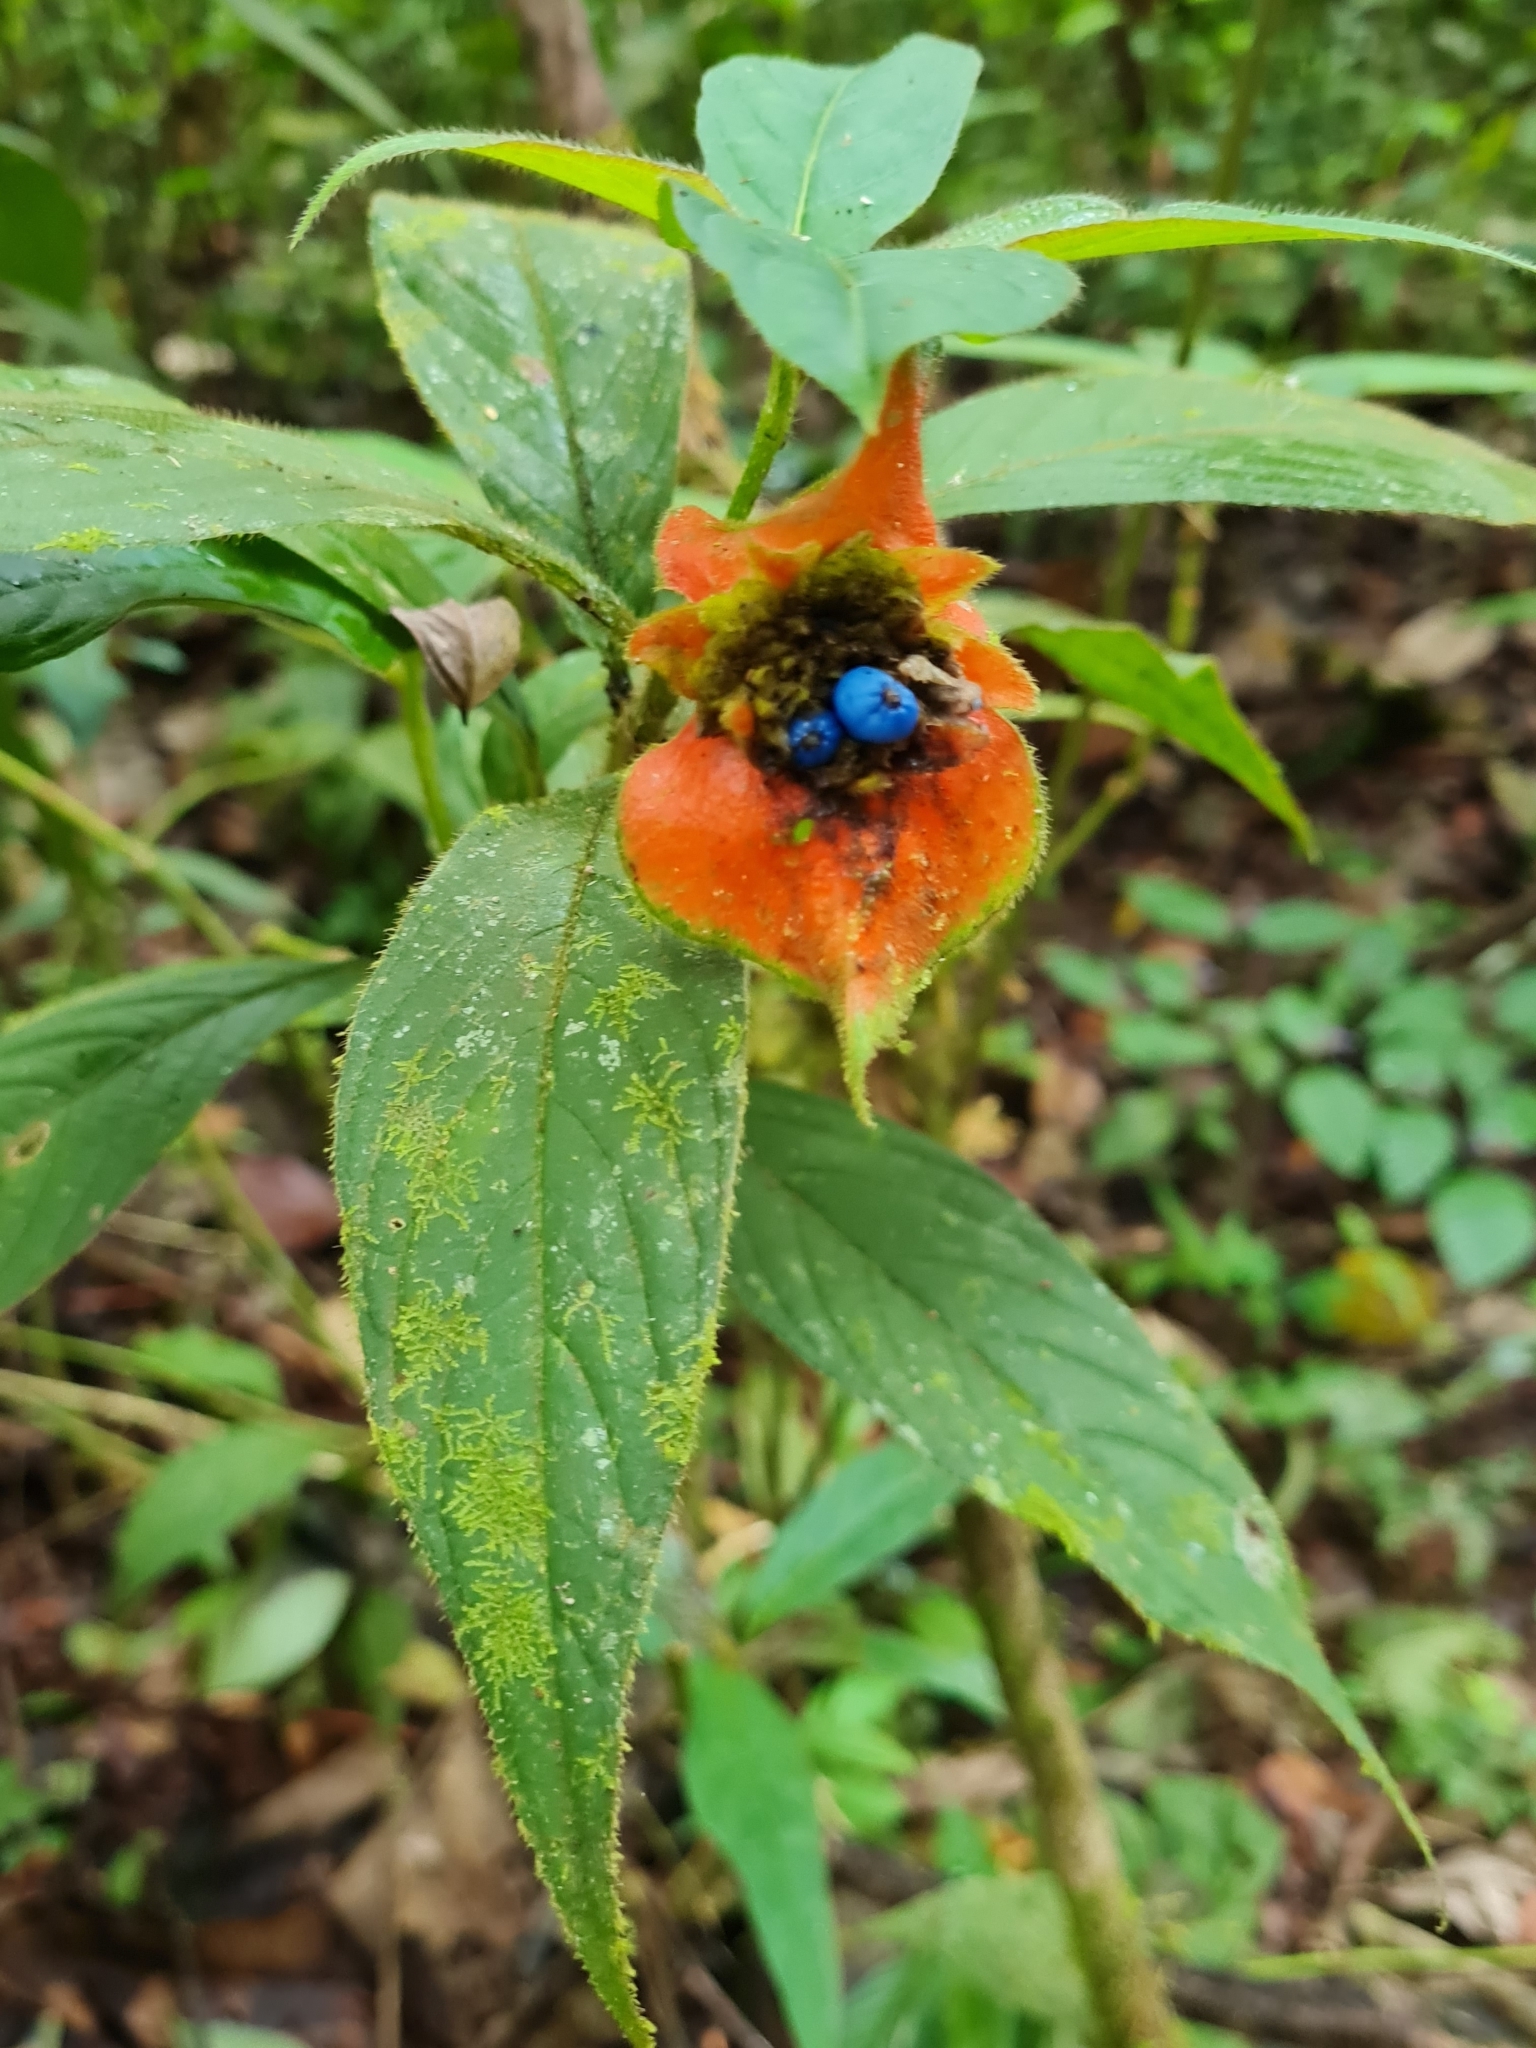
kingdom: Plantae
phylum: Tracheophyta
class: Magnoliopsida
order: Gentianales
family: Rubiaceae
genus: Palicourea
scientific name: Palicourea tomentosa
